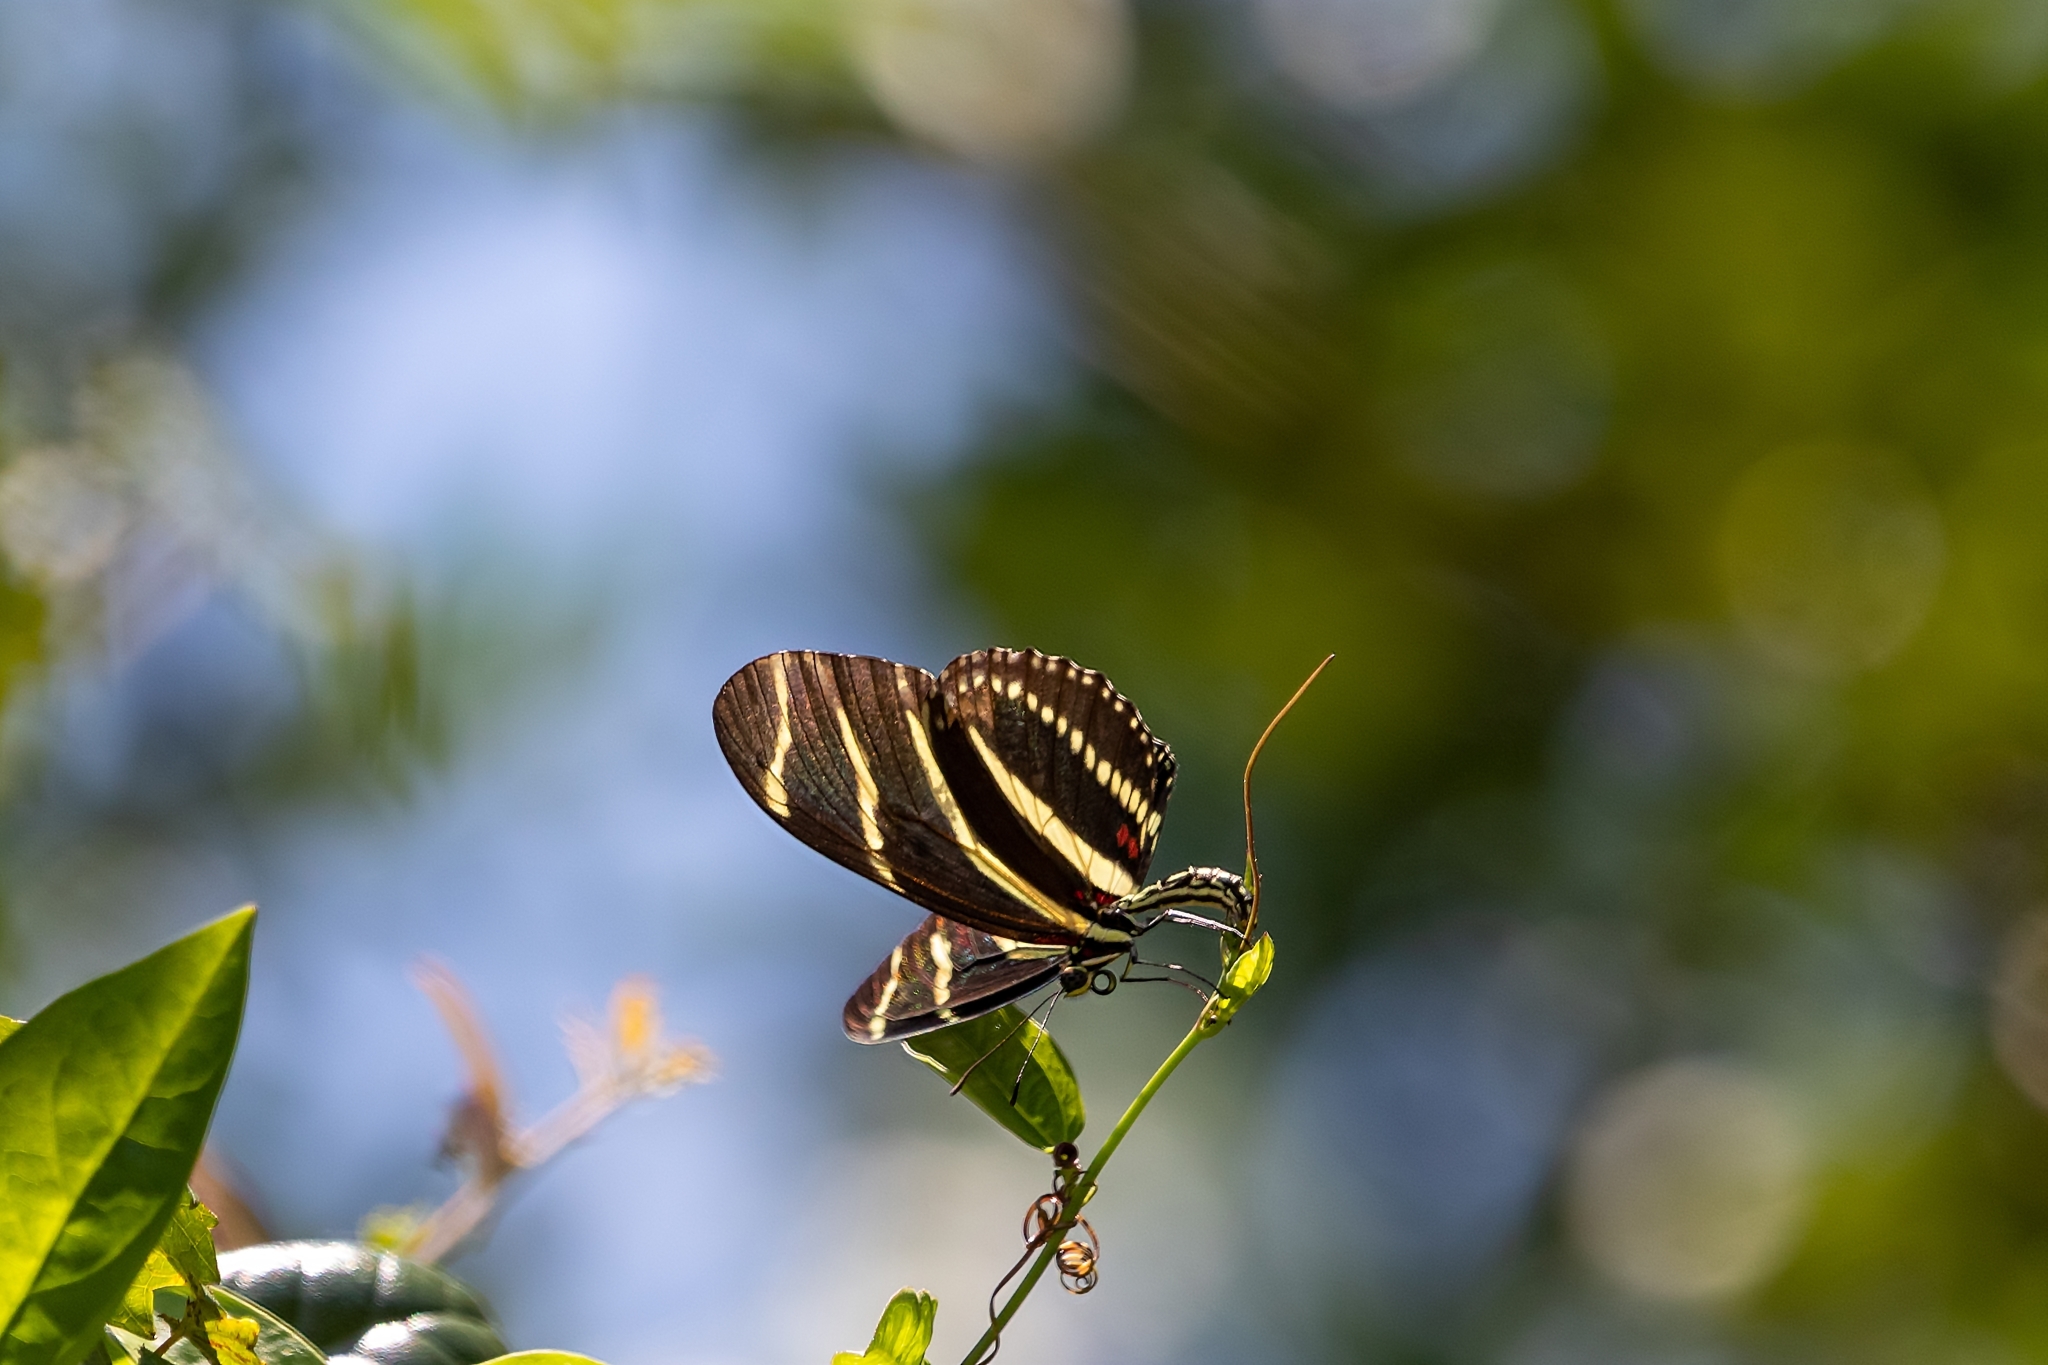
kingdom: Animalia
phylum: Arthropoda
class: Insecta
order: Lepidoptera
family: Nymphalidae
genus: Heliconius
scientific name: Heliconius charithonia
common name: Zebra long wing
